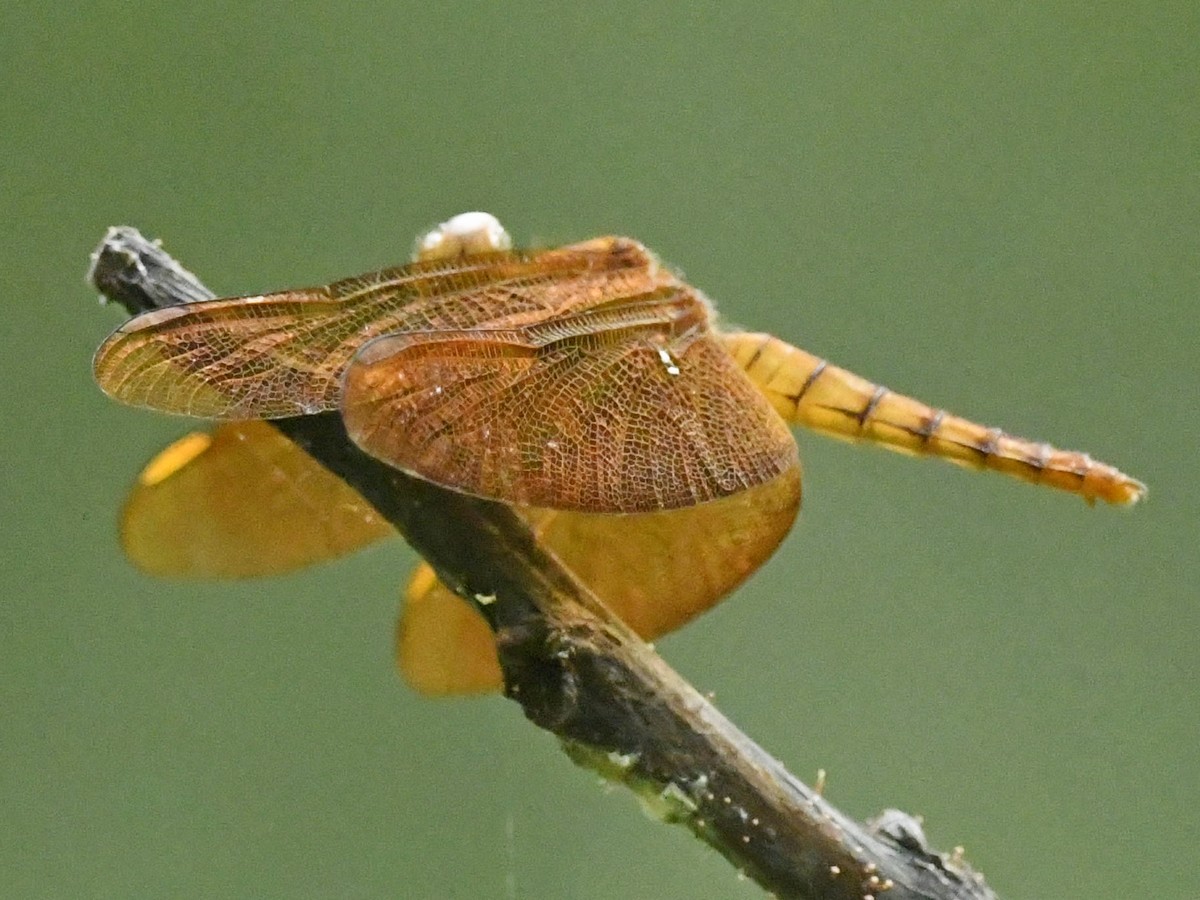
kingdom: Animalia
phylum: Arthropoda
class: Insecta
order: Odonata
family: Libellulidae
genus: Neurothemis
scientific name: Neurothemis fulvia
